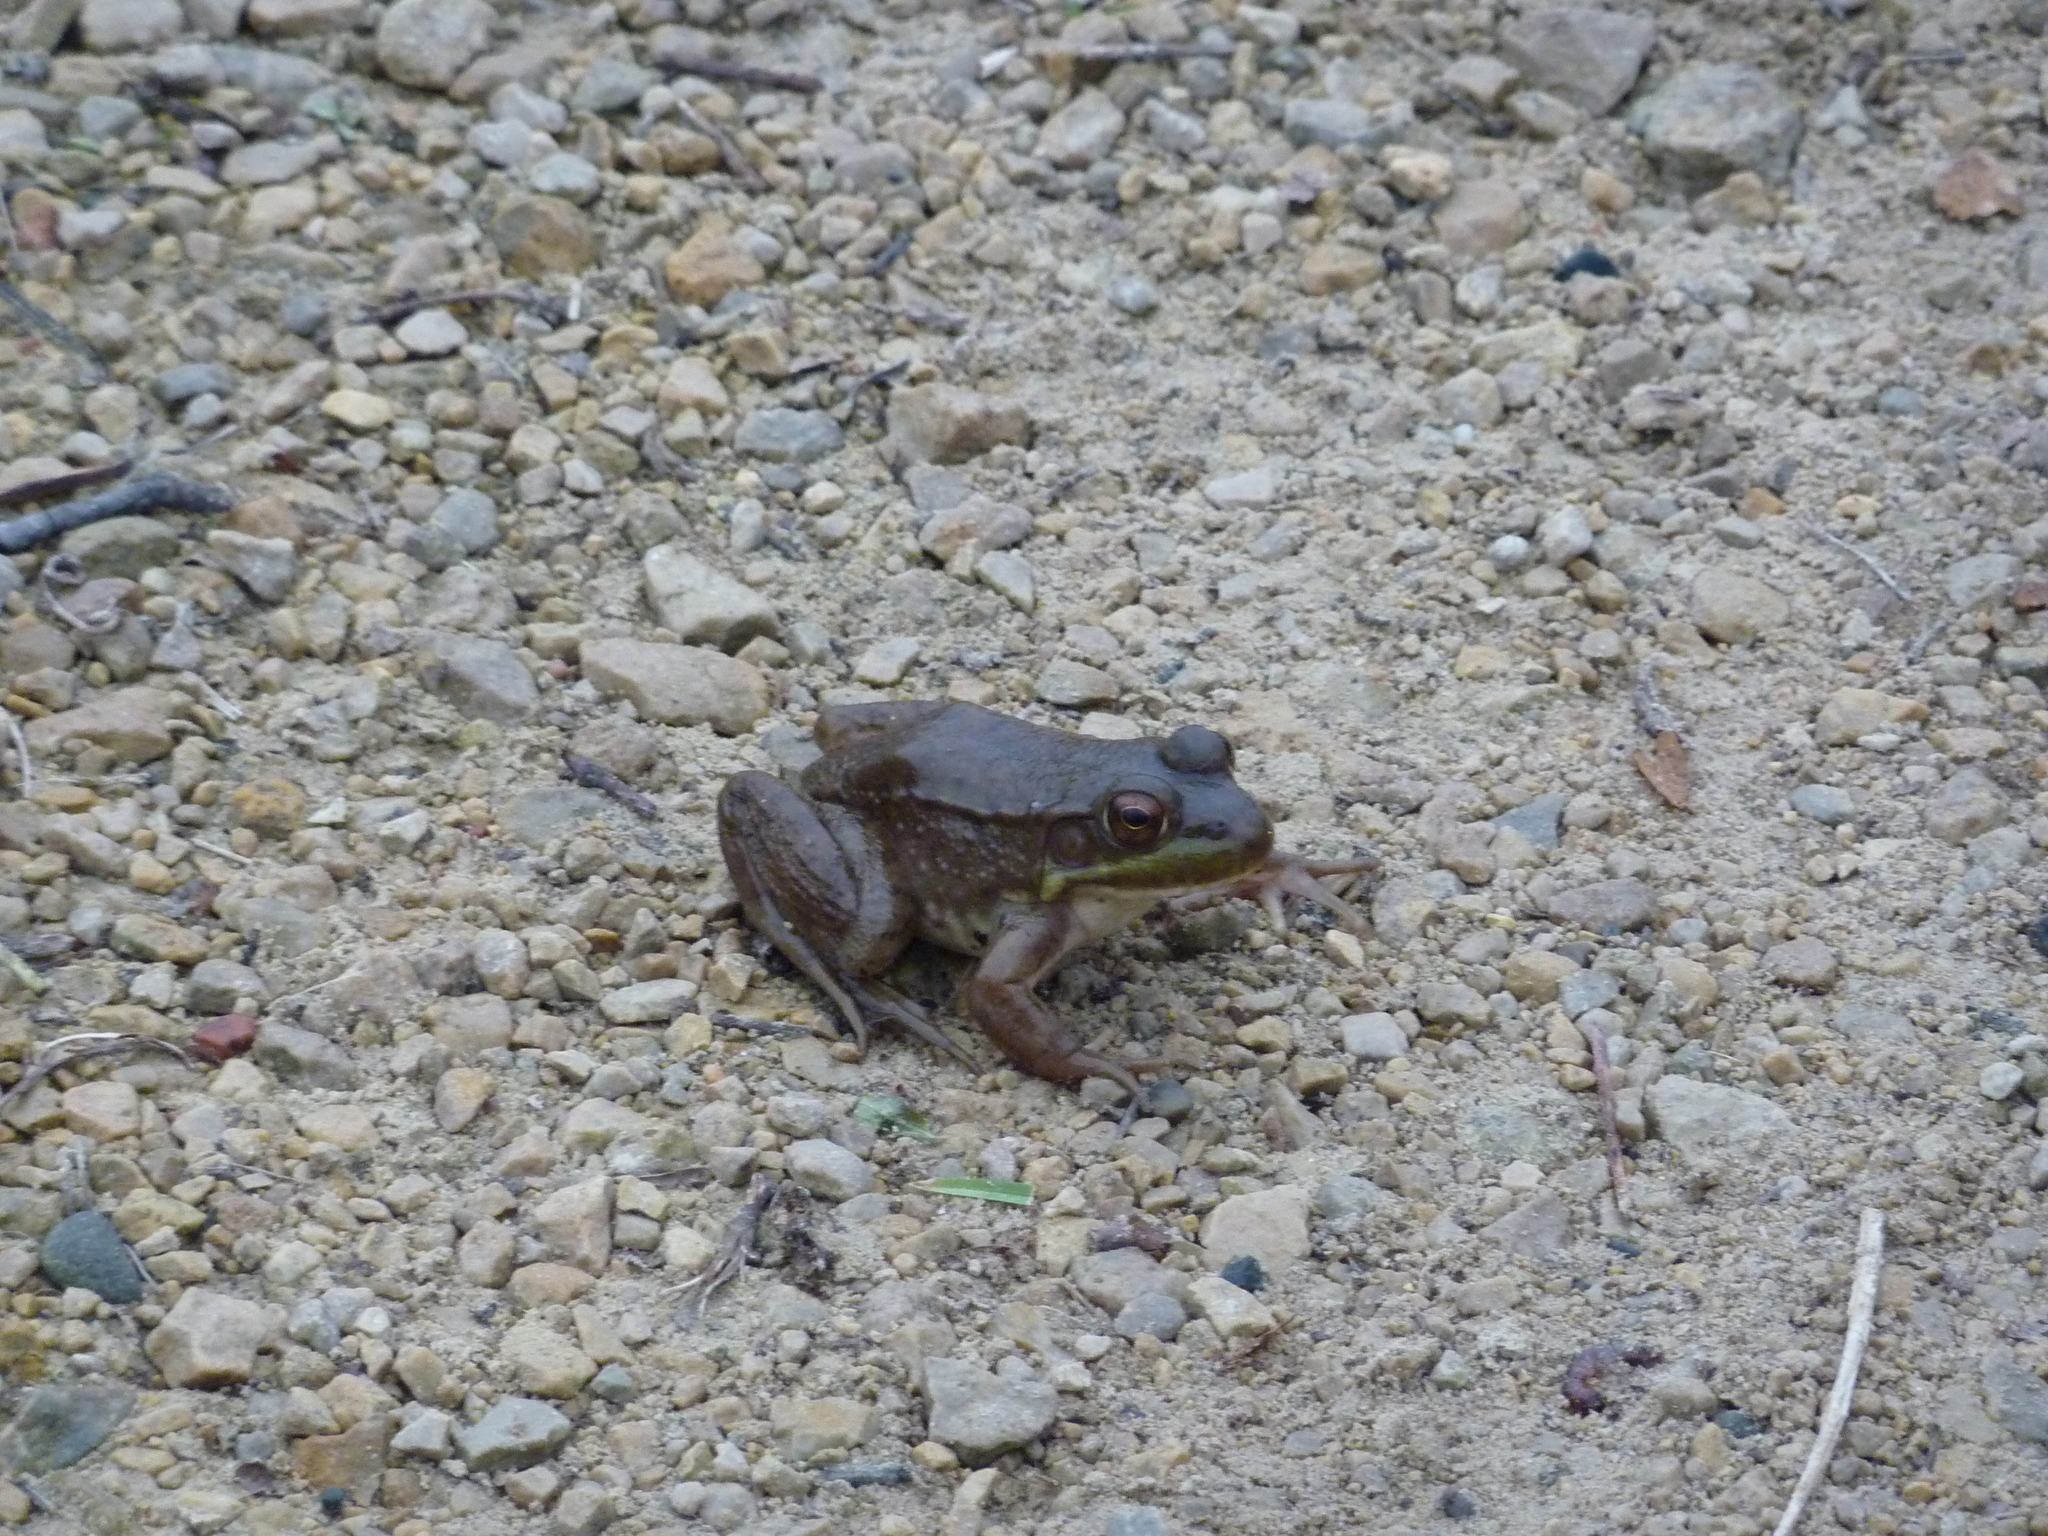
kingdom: Animalia
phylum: Chordata
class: Amphibia
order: Anura
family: Ranidae
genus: Lithobates
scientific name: Lithobates clamitans
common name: Green frog
